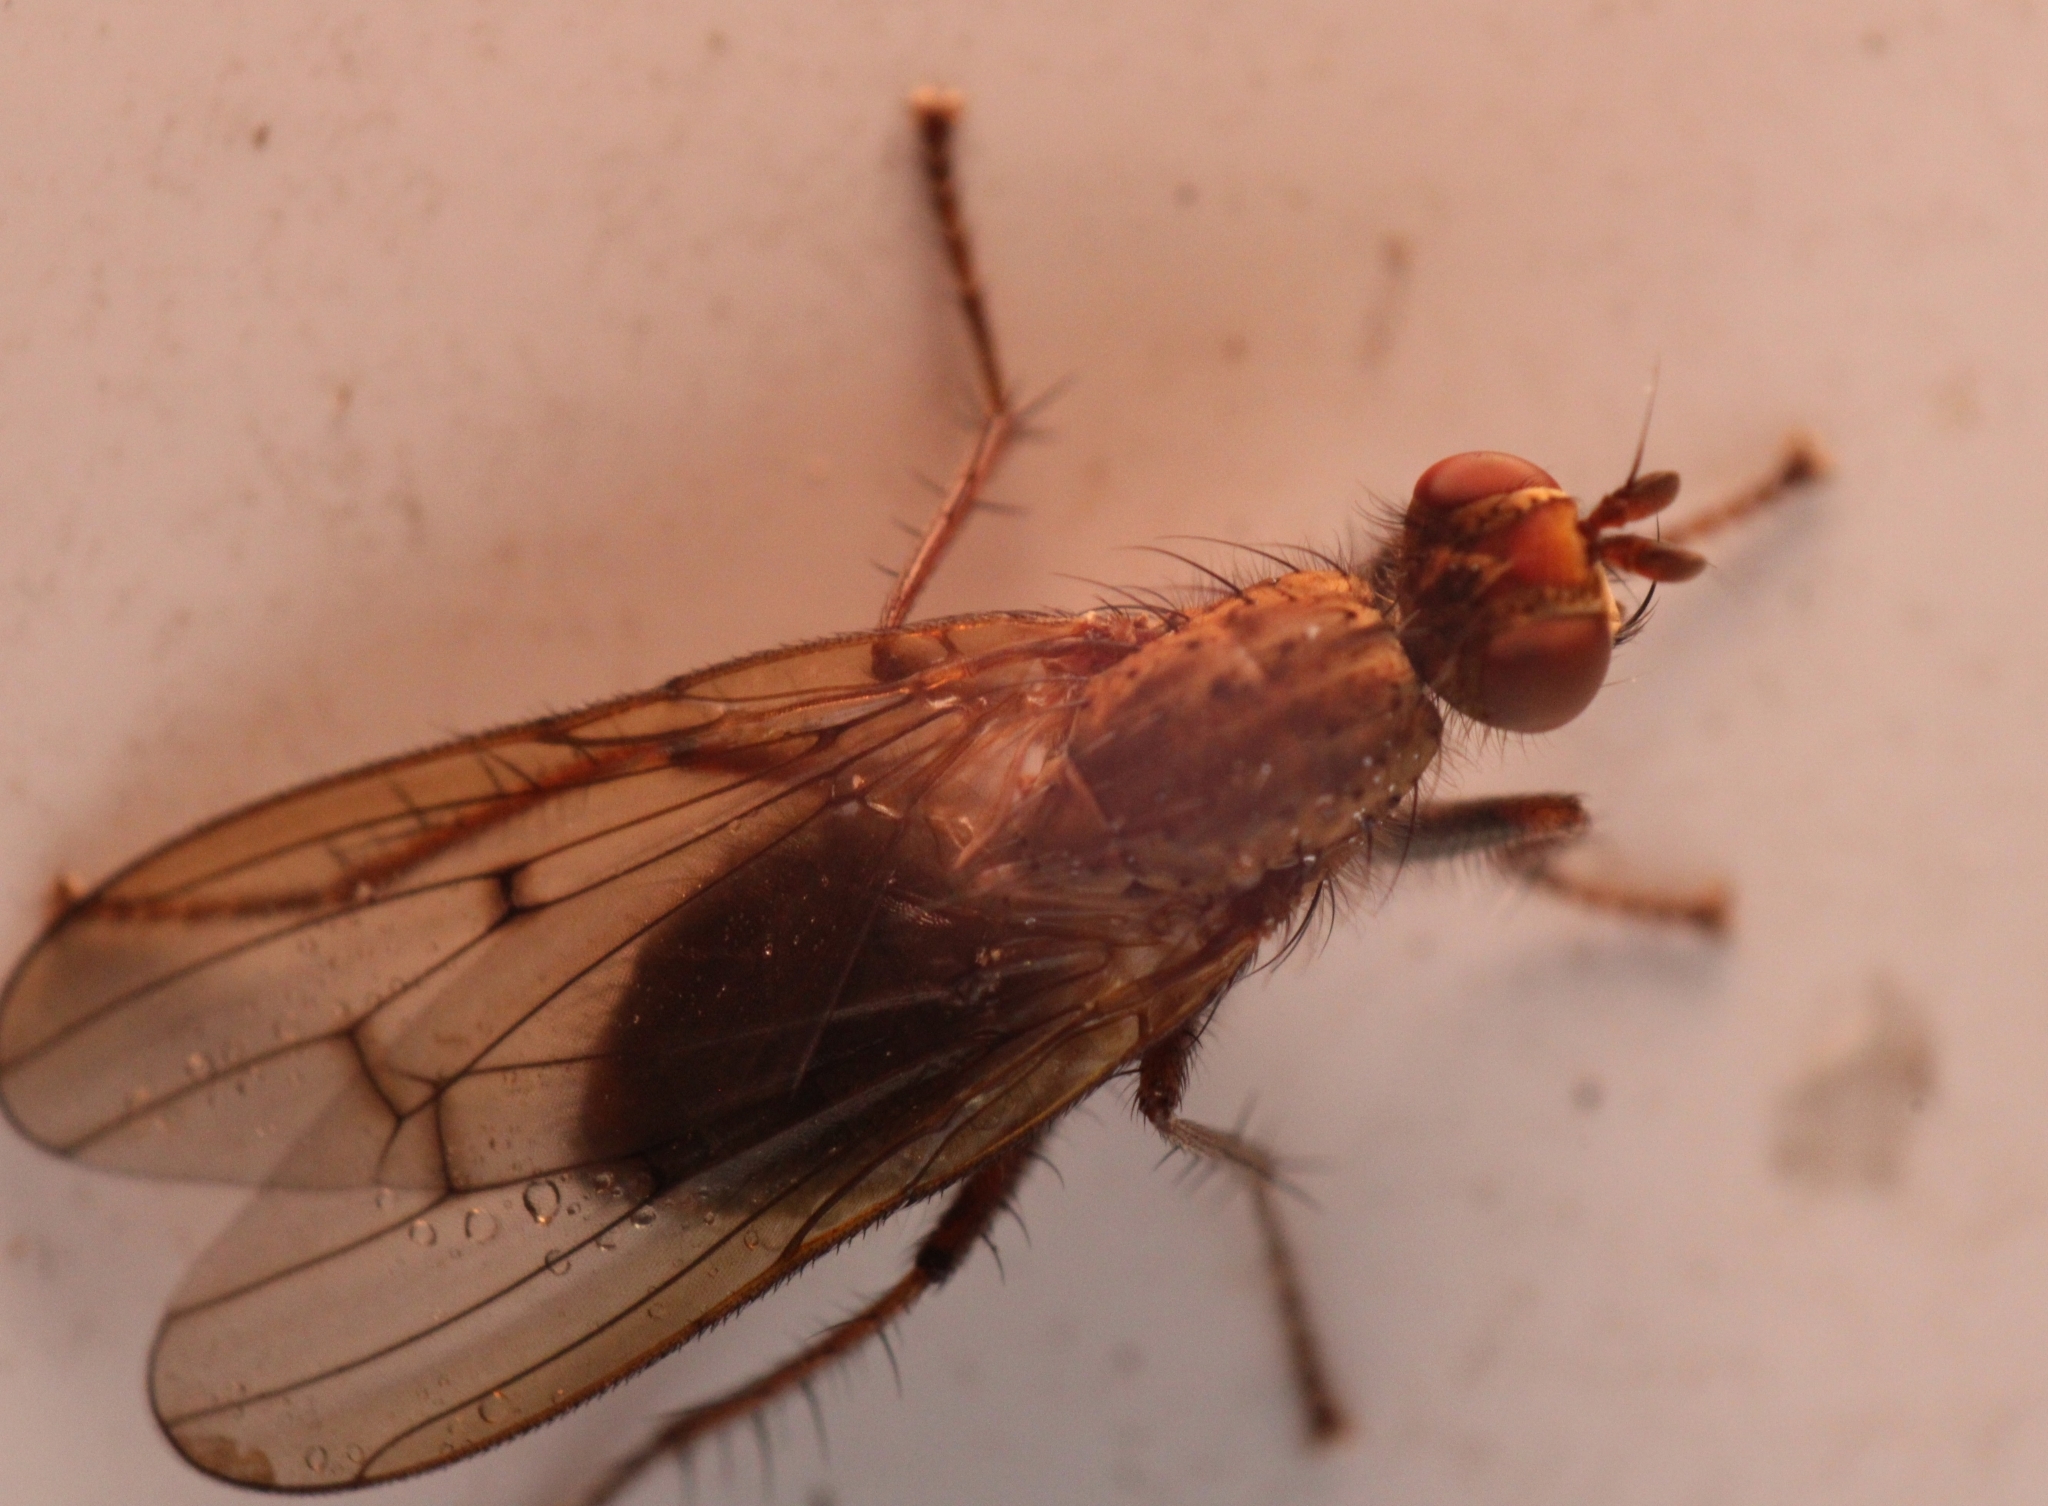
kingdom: Animalia
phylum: Arthropoda
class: Insecta
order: Diptera
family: Scathophagidae
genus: Scathophaga
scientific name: Scathophaga furcata
